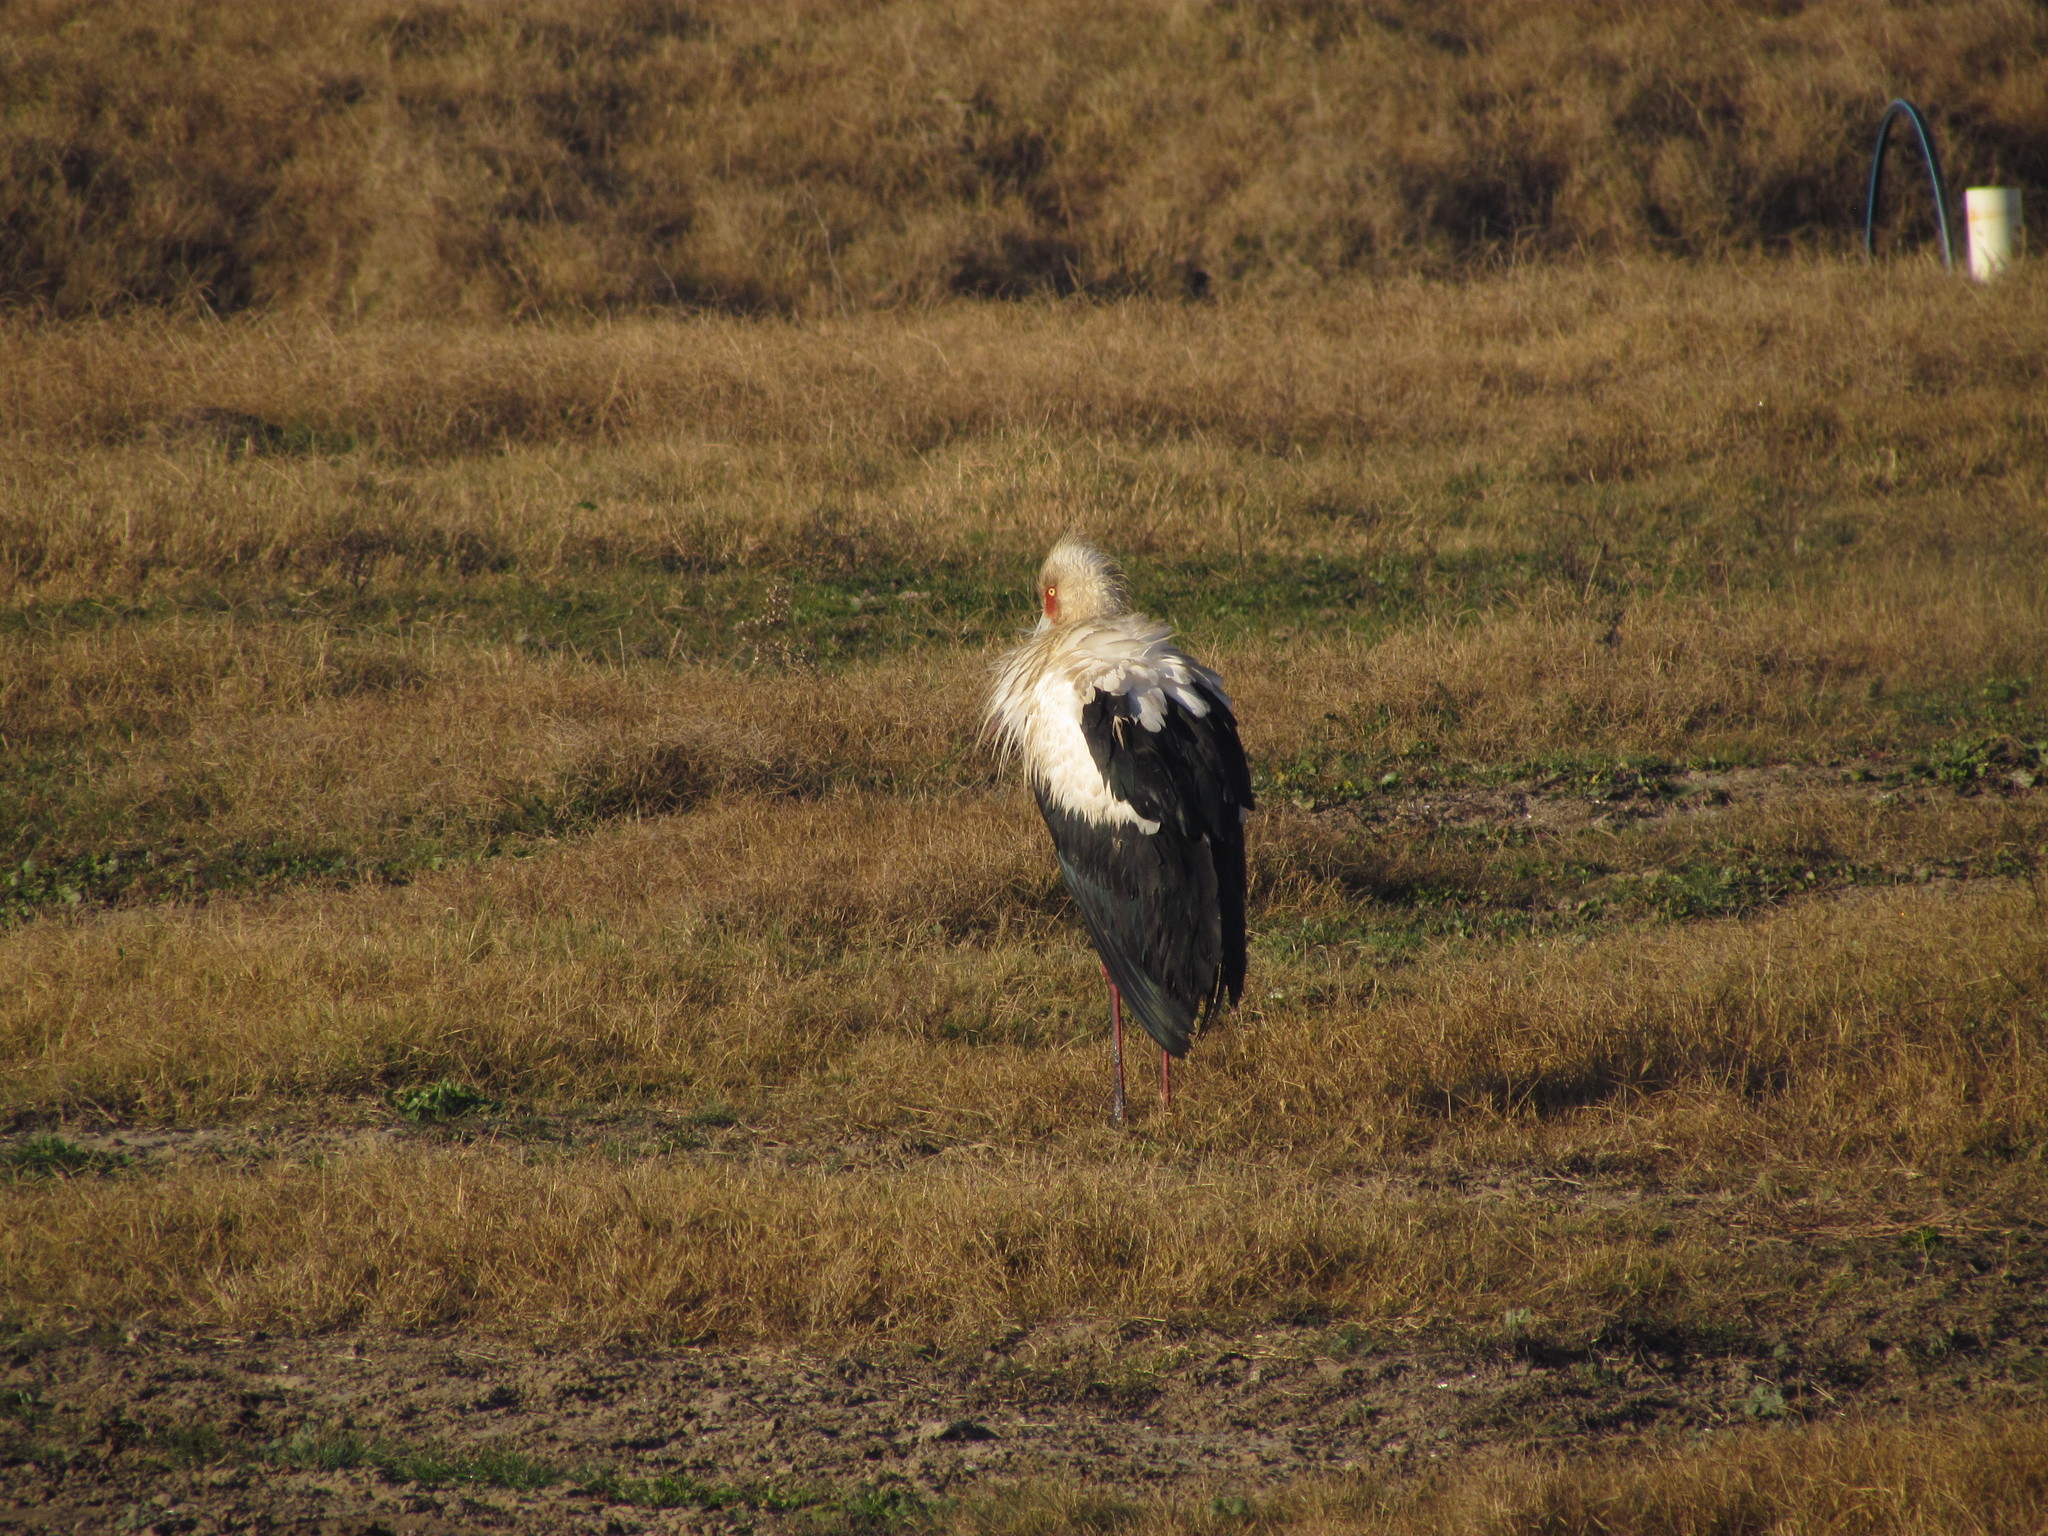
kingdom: Animalia
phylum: Chordata
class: Aves
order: Ciconiiformes
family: Ciconiidae
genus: Ciconia
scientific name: Ciconia maguari
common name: Maguari stork
